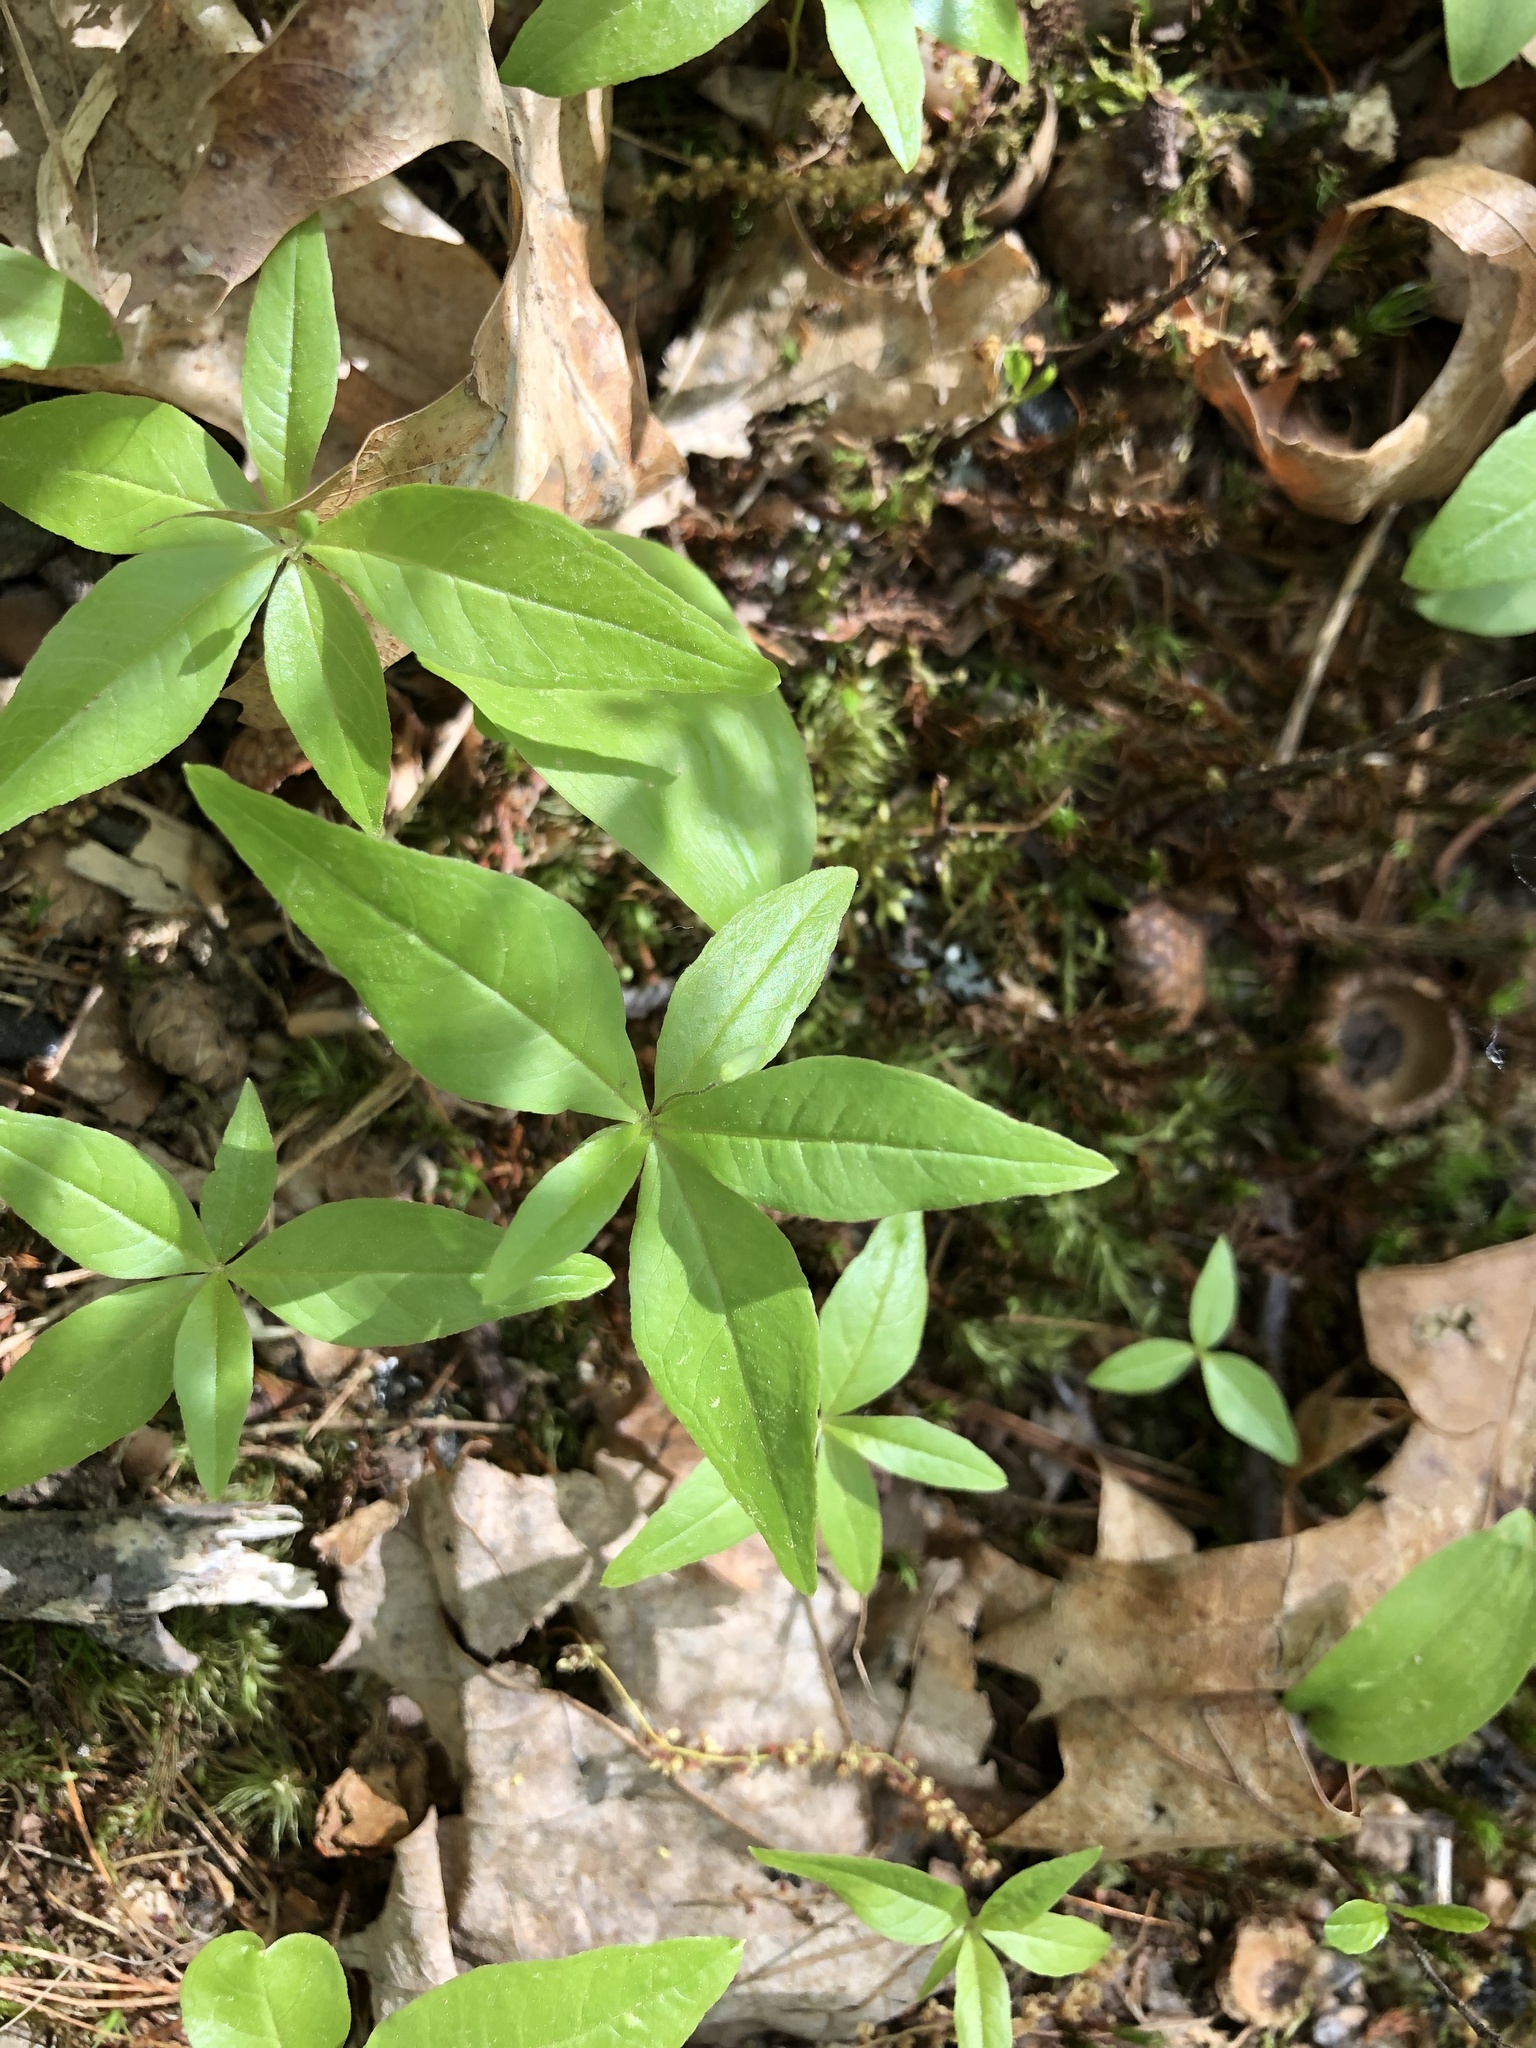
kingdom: Plantae
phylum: Tracheophyta
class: Magnoliopsida
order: Ericales
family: Primulaceae
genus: Lysimachia
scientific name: Lysimachia borealis
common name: American starflower
